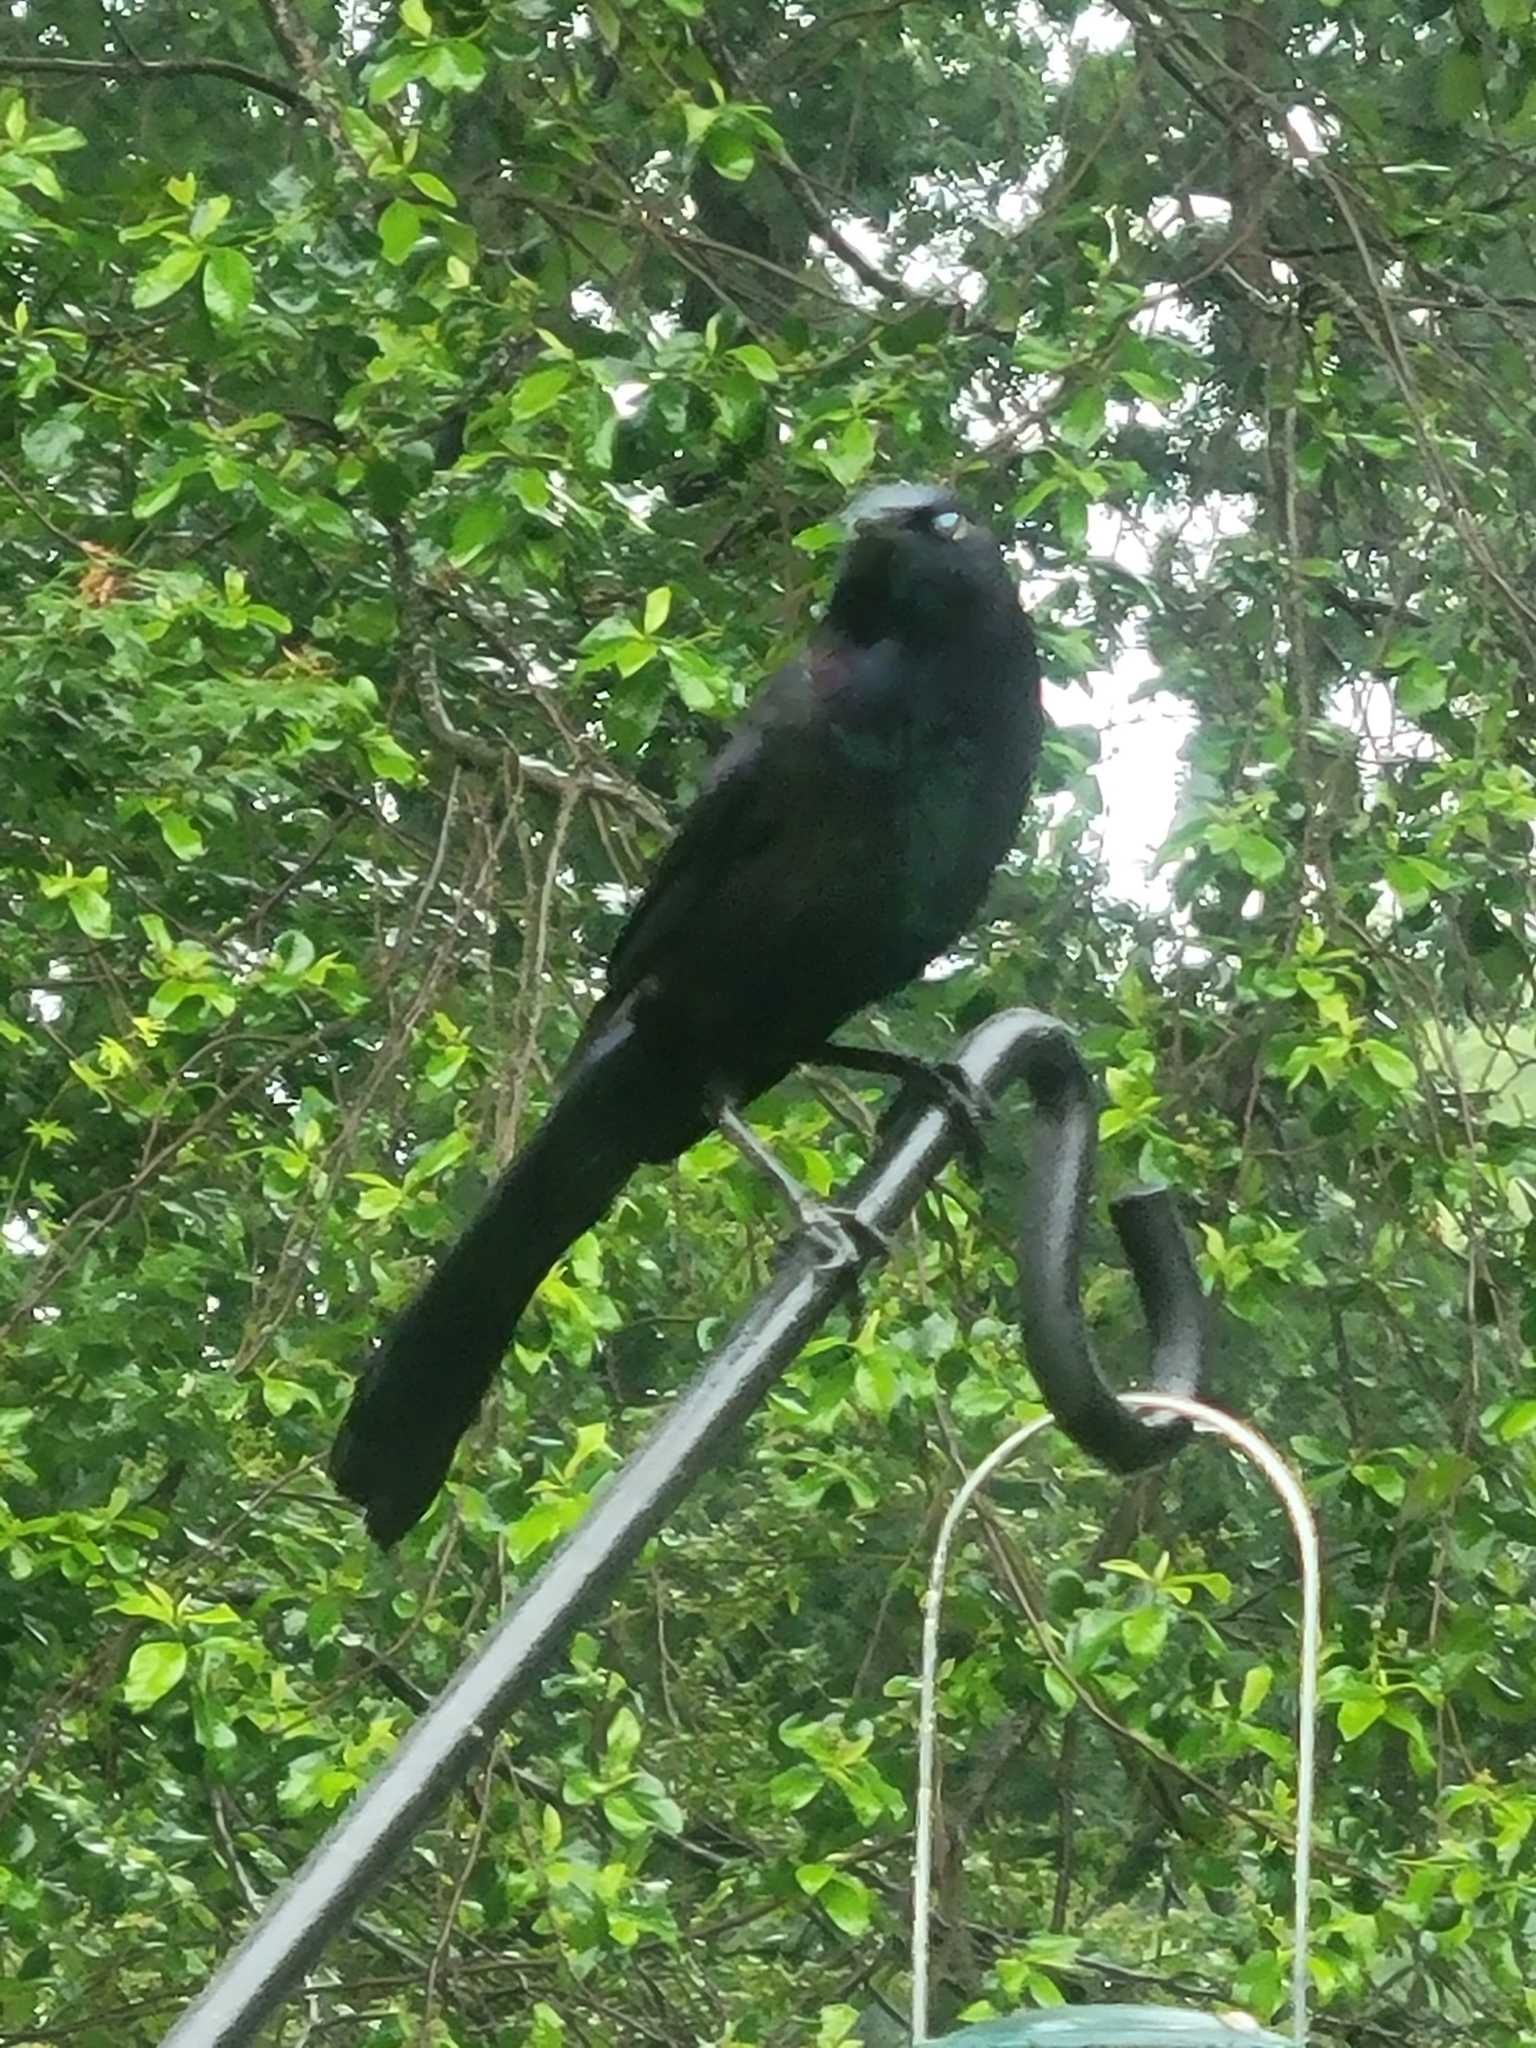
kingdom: Animalia
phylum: Chordata
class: Aves
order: Passeriformes
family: Icteridae
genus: Quiscalus
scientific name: Quiscalus major
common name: Boat-tailed grackle
